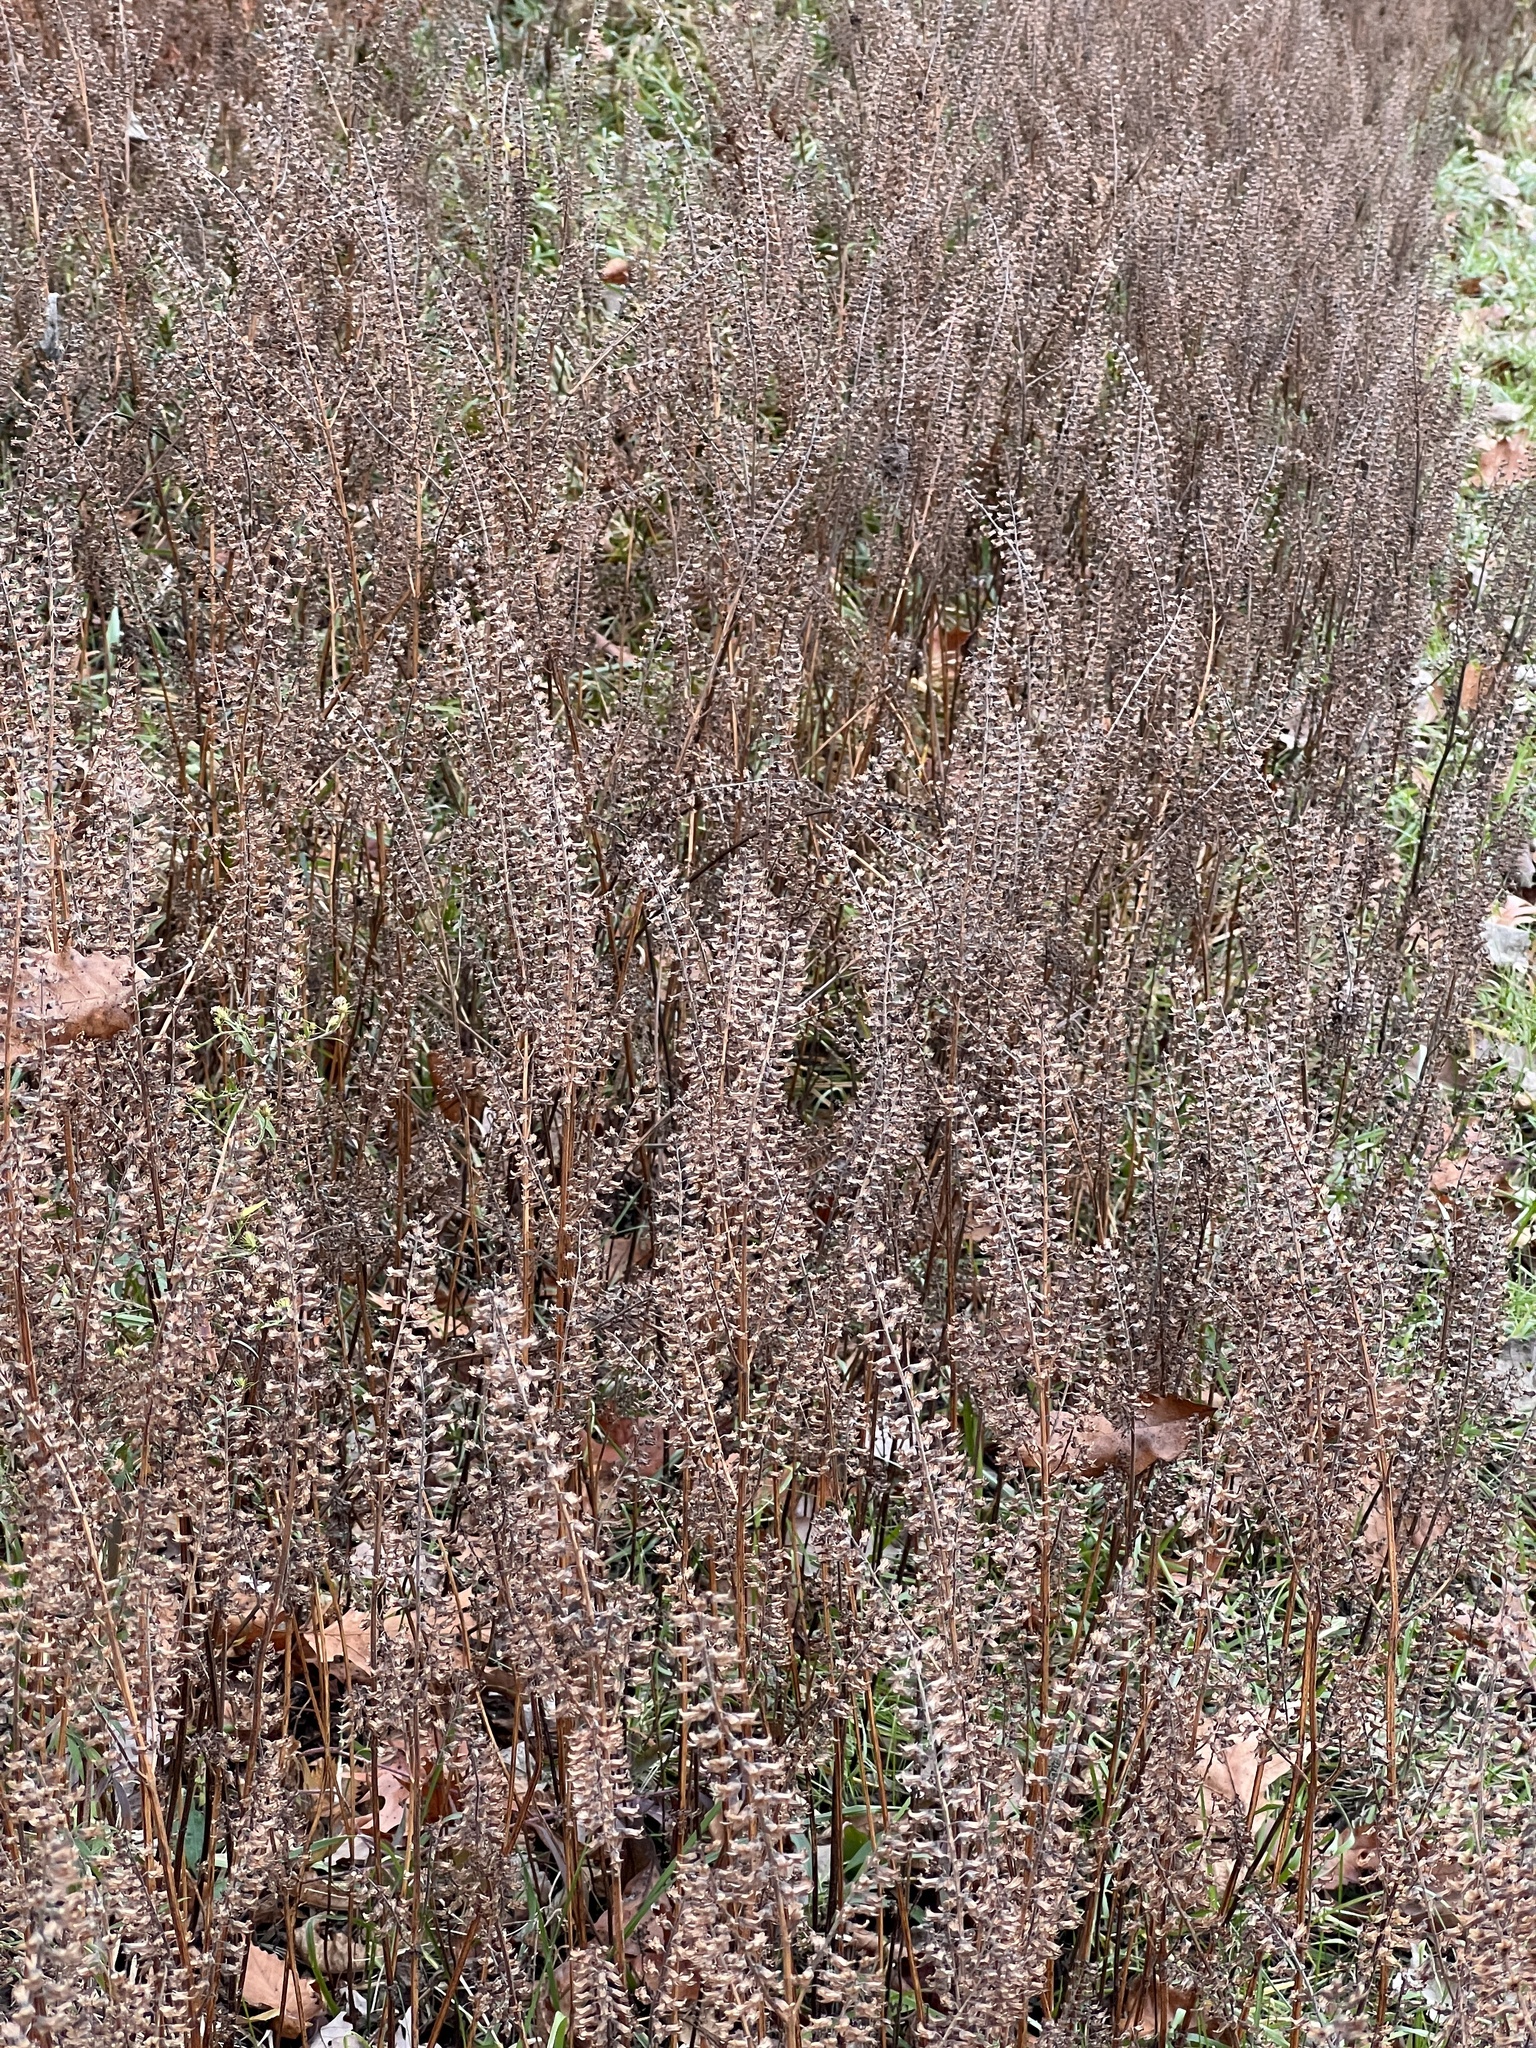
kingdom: Plantae
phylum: Tracheophyta
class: Magnoliopsida
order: Lamiales
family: Lamiaceae
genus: Perilla
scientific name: Perilla frutescens
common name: Perilla
